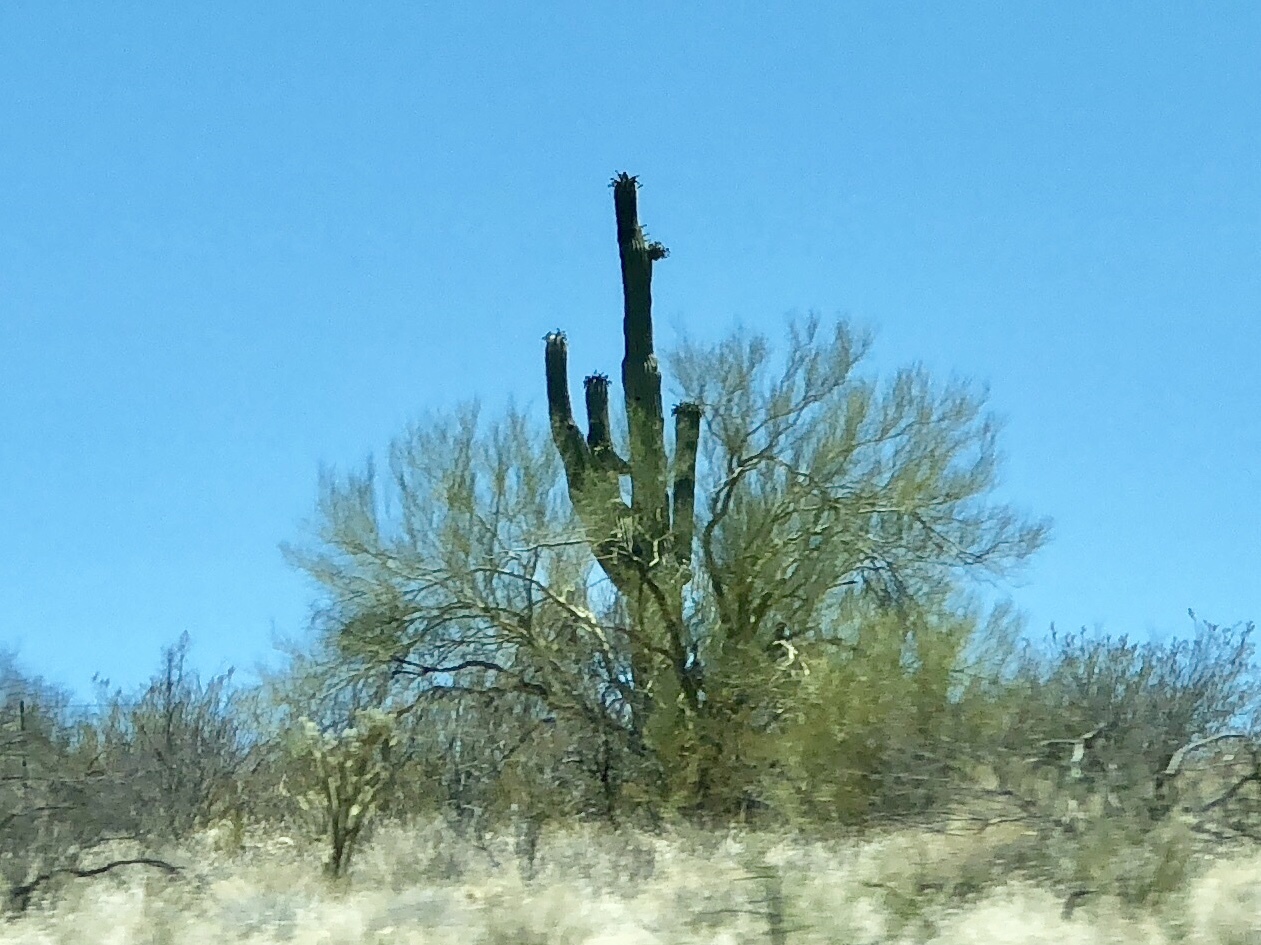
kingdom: Plantae
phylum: Tracheophyta
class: Magnoliopsida
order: Caryophyllales
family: Cactaceae
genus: Carnegiea
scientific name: Carnegiea gigantea
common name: Saguaro
